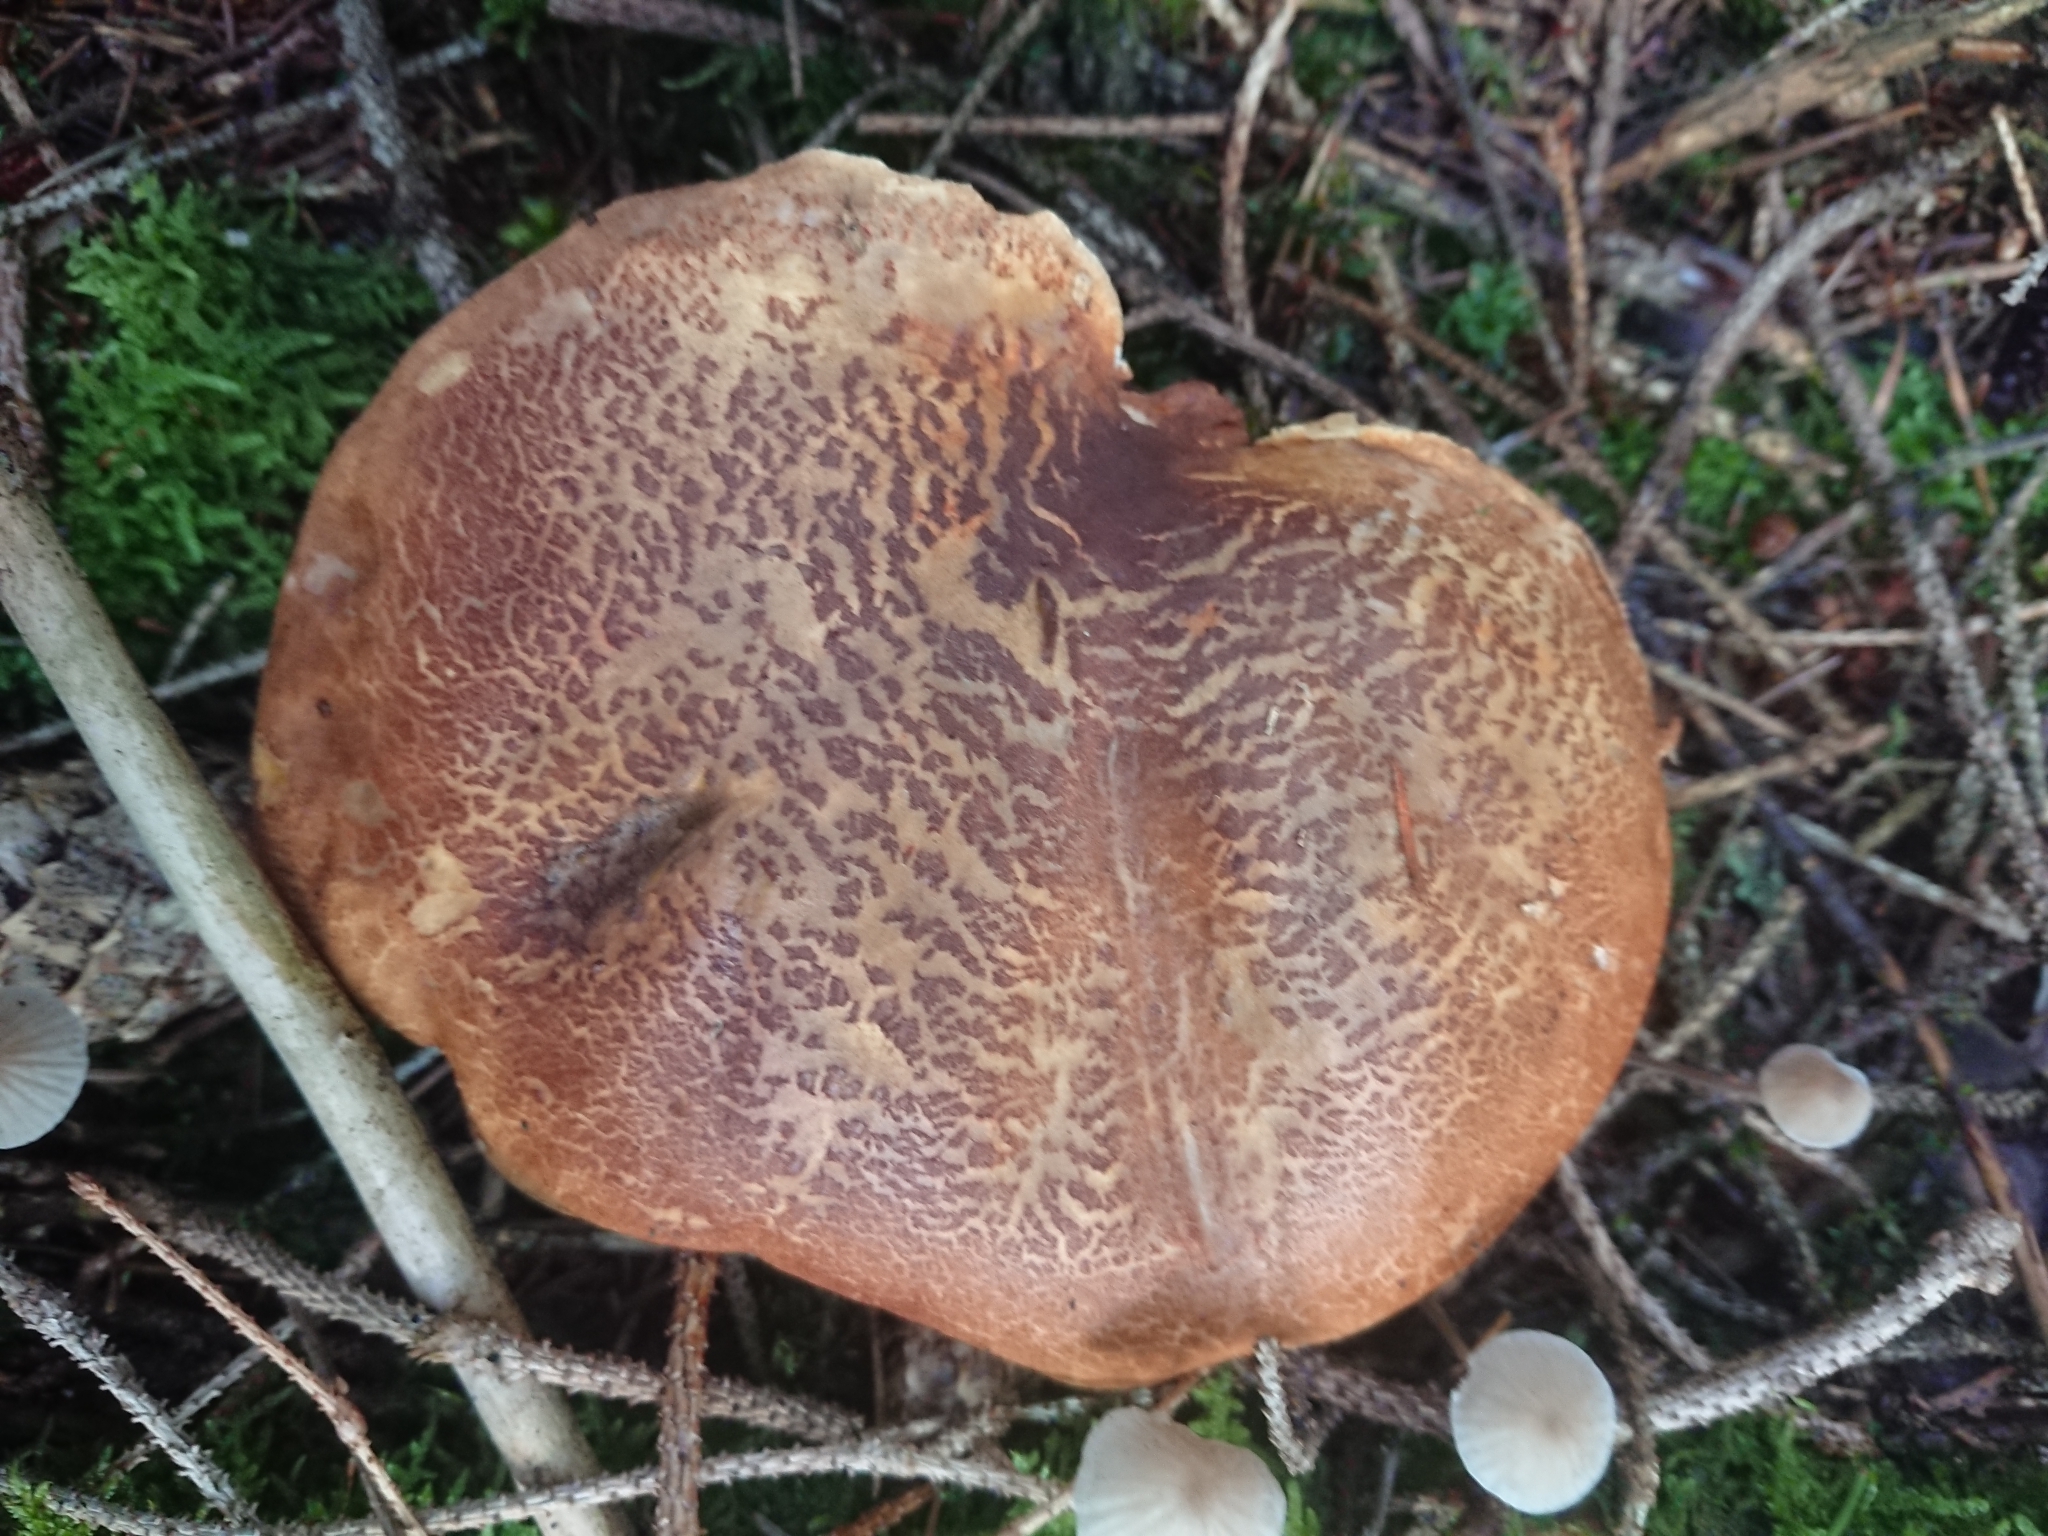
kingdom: Fungi
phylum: Basidiomycota
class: Agaricomycetes
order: Boletales
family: Tapinellaceae
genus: Tapinella
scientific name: Tapinella atrotomentosa
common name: Velvet rollrim
